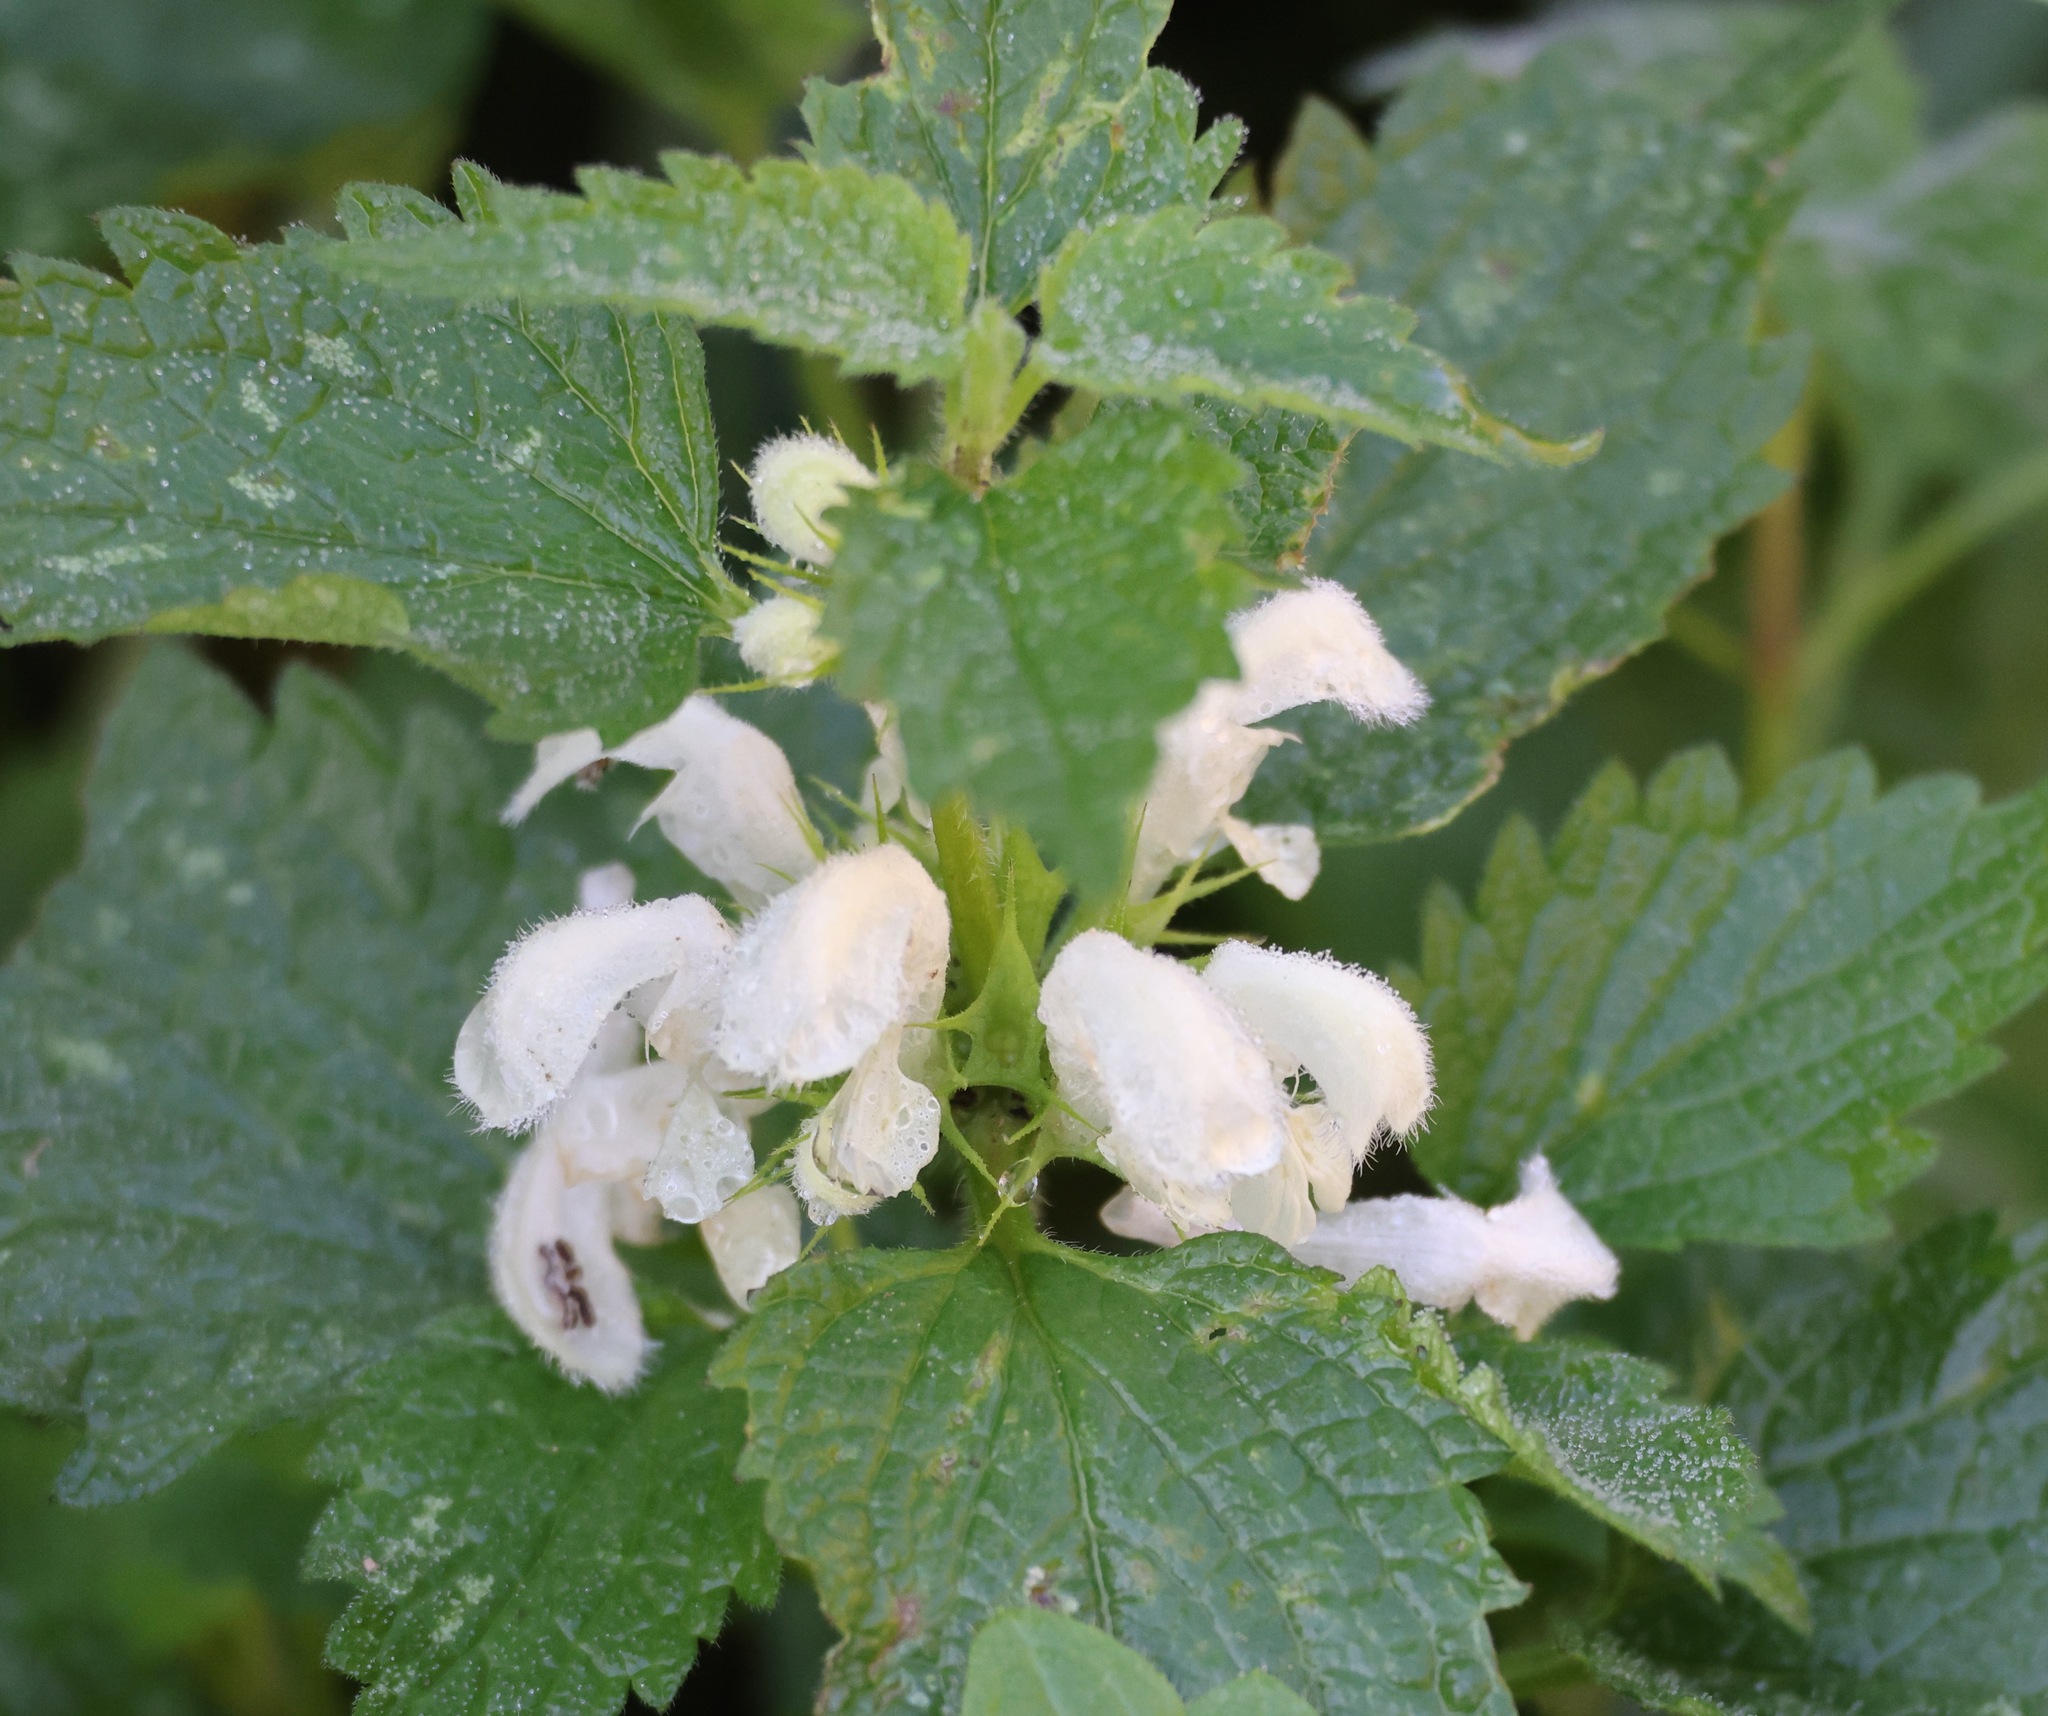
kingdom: Plantae
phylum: Tracheophyta
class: Magnoliopsida
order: Lamiales
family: Lamiaceae
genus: Lamium
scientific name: Lamium album
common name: White dead-nettle
